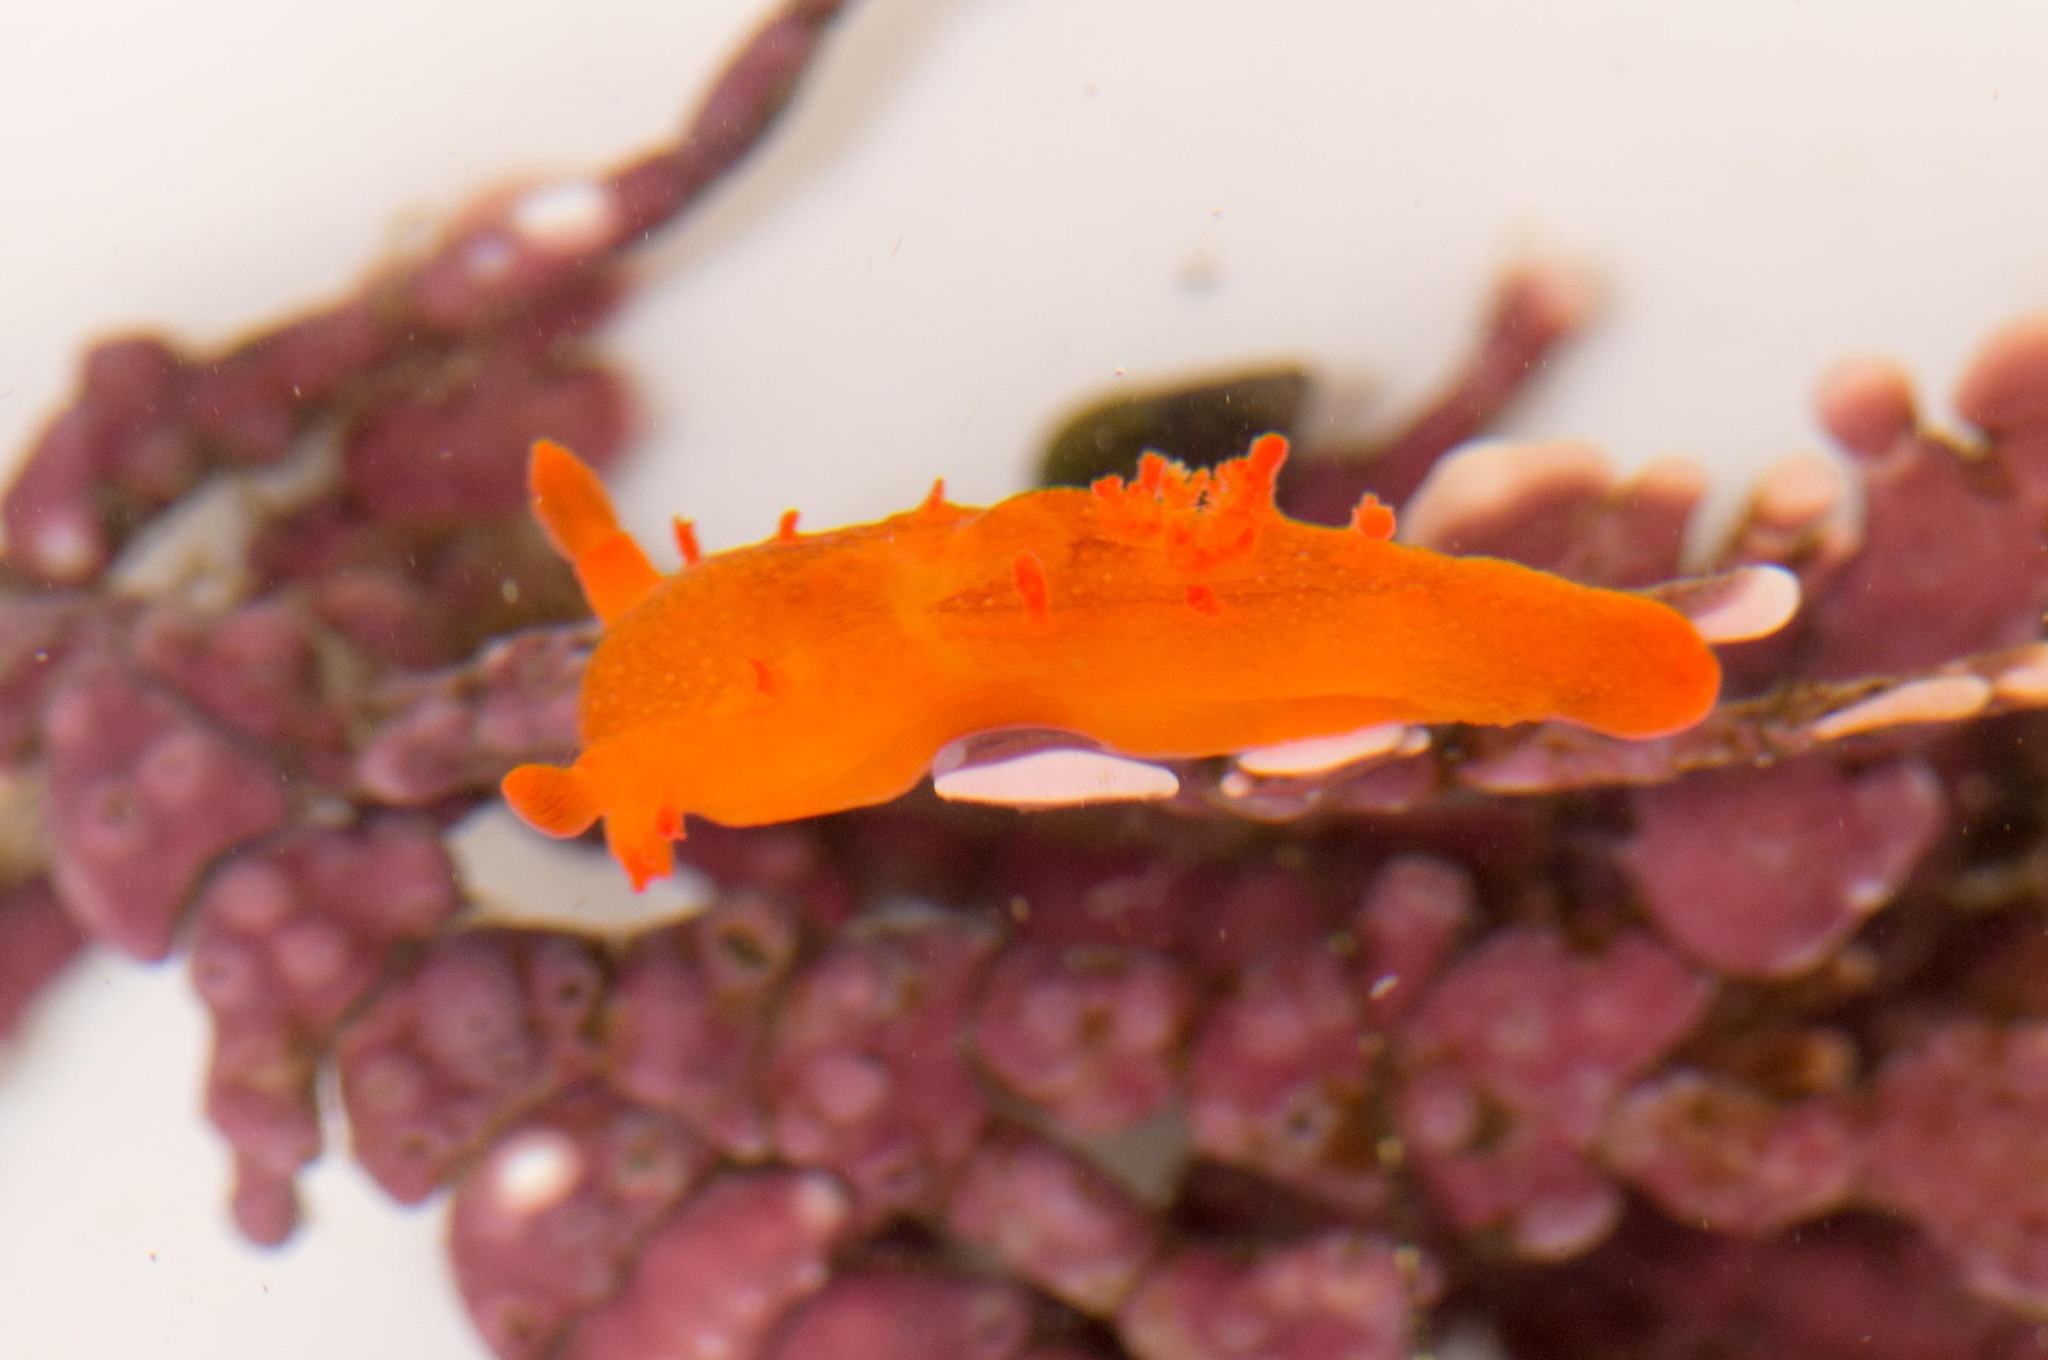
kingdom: Animalia
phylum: Mollusca
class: Gastropoda
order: Nudibranchia
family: Polyceridae
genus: Triopha
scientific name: Triopha maculata
